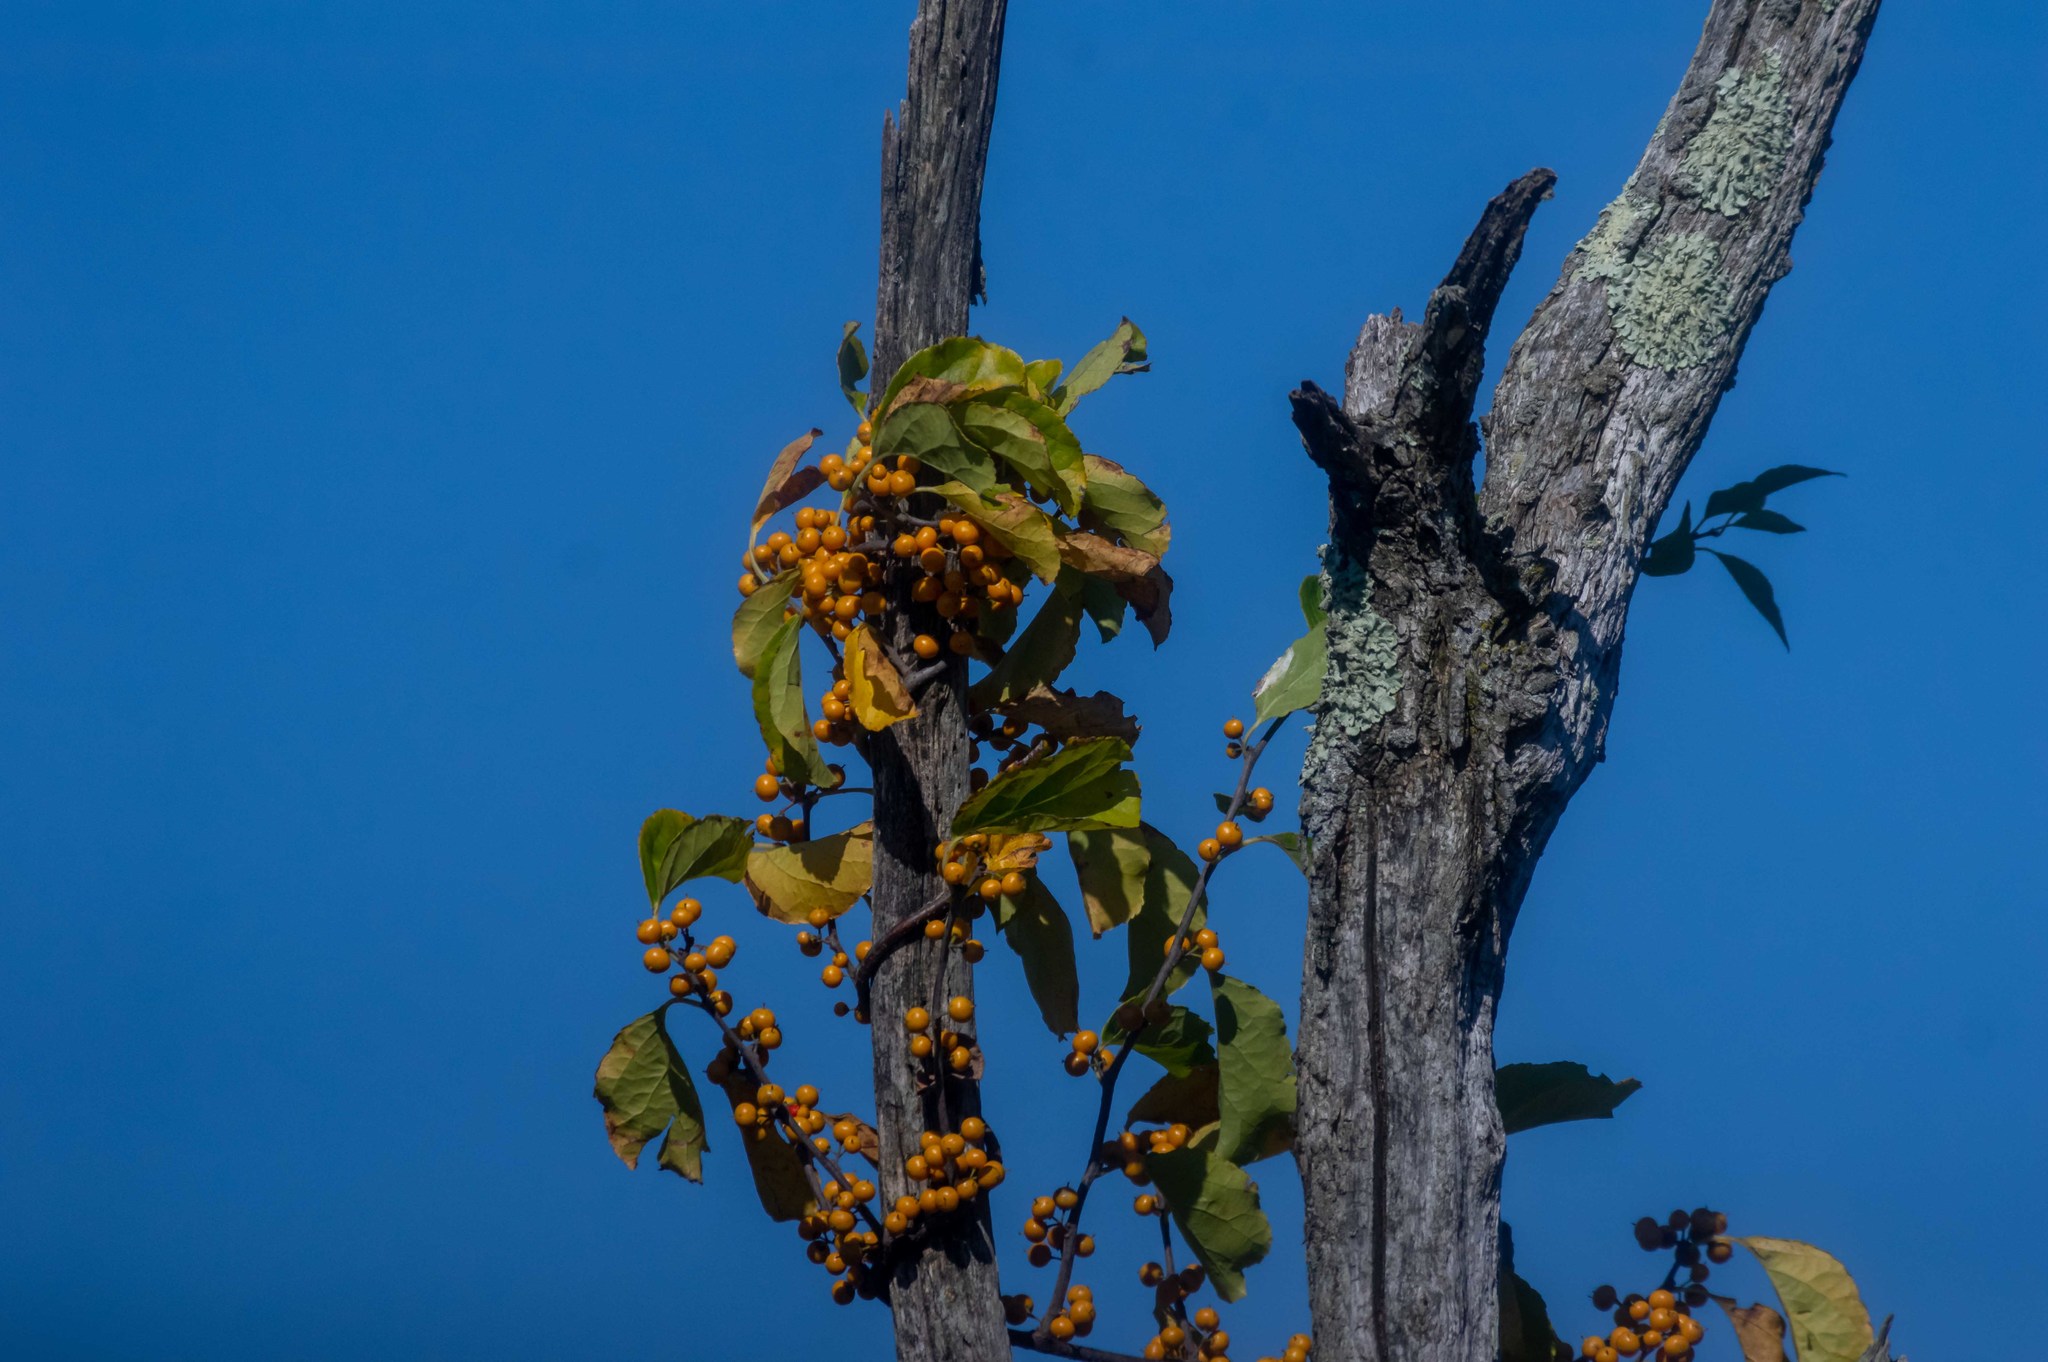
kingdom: Plantae
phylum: Tracheophyta
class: Magnoliopsida
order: Celastrales
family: Celastraceae
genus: Celastrus
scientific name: Celastrus orbiculatus
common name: Oriental bittersweet
